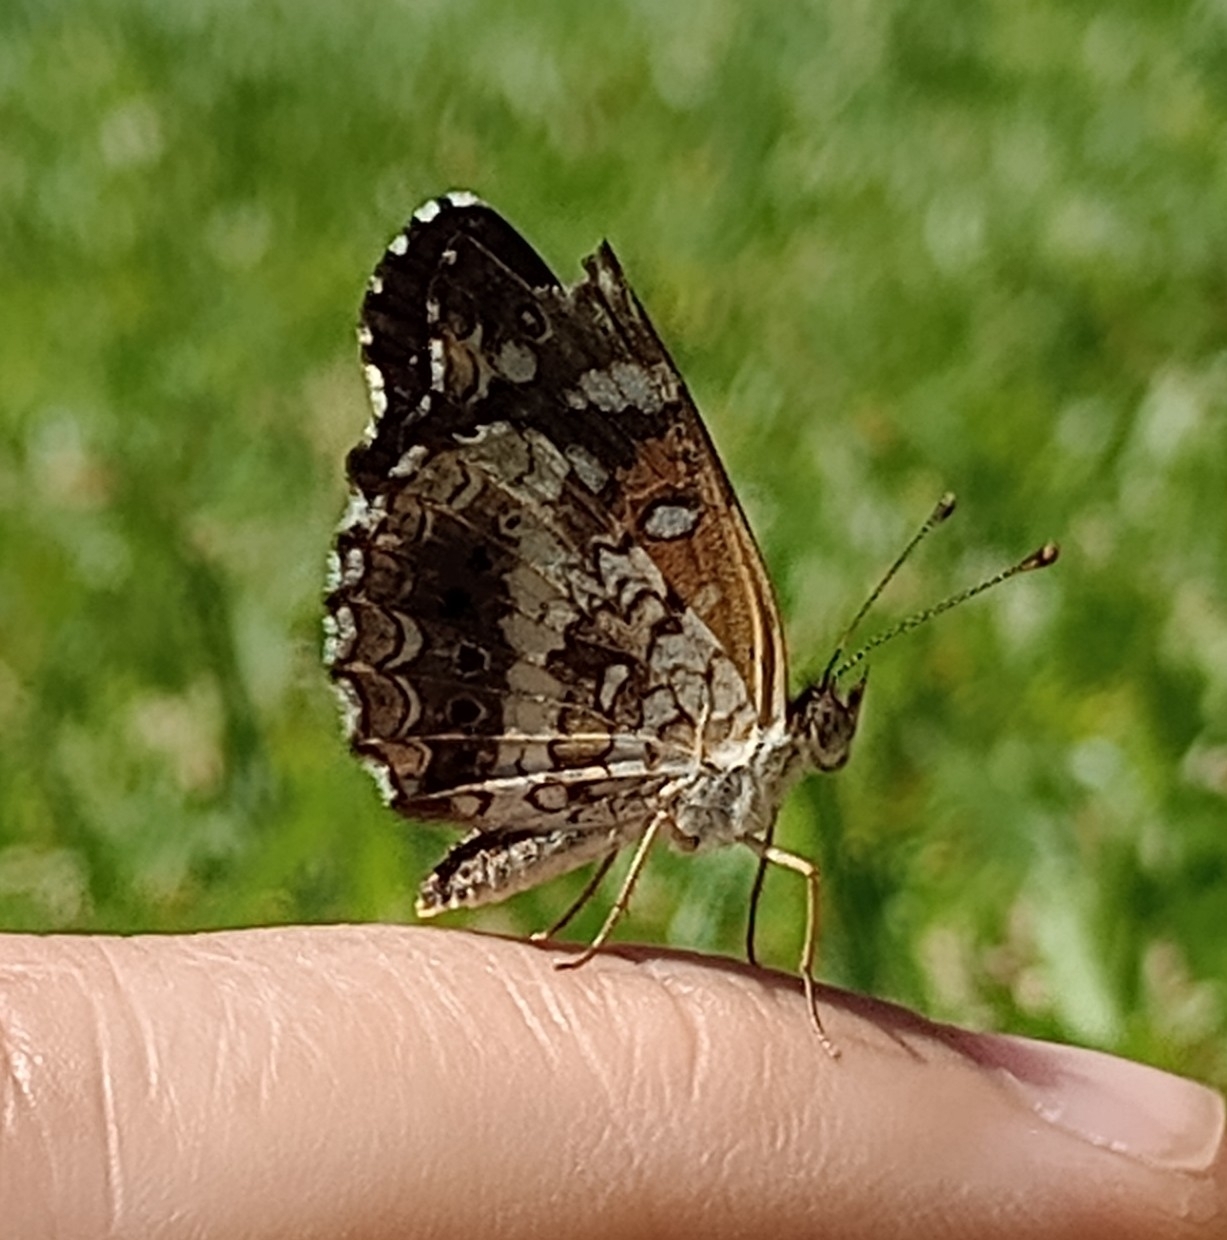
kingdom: Animalia
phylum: Arthropoda
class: Insecta
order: Lepidoptera
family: Nymphalidae
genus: Ortilia
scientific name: Ortilia ithra
